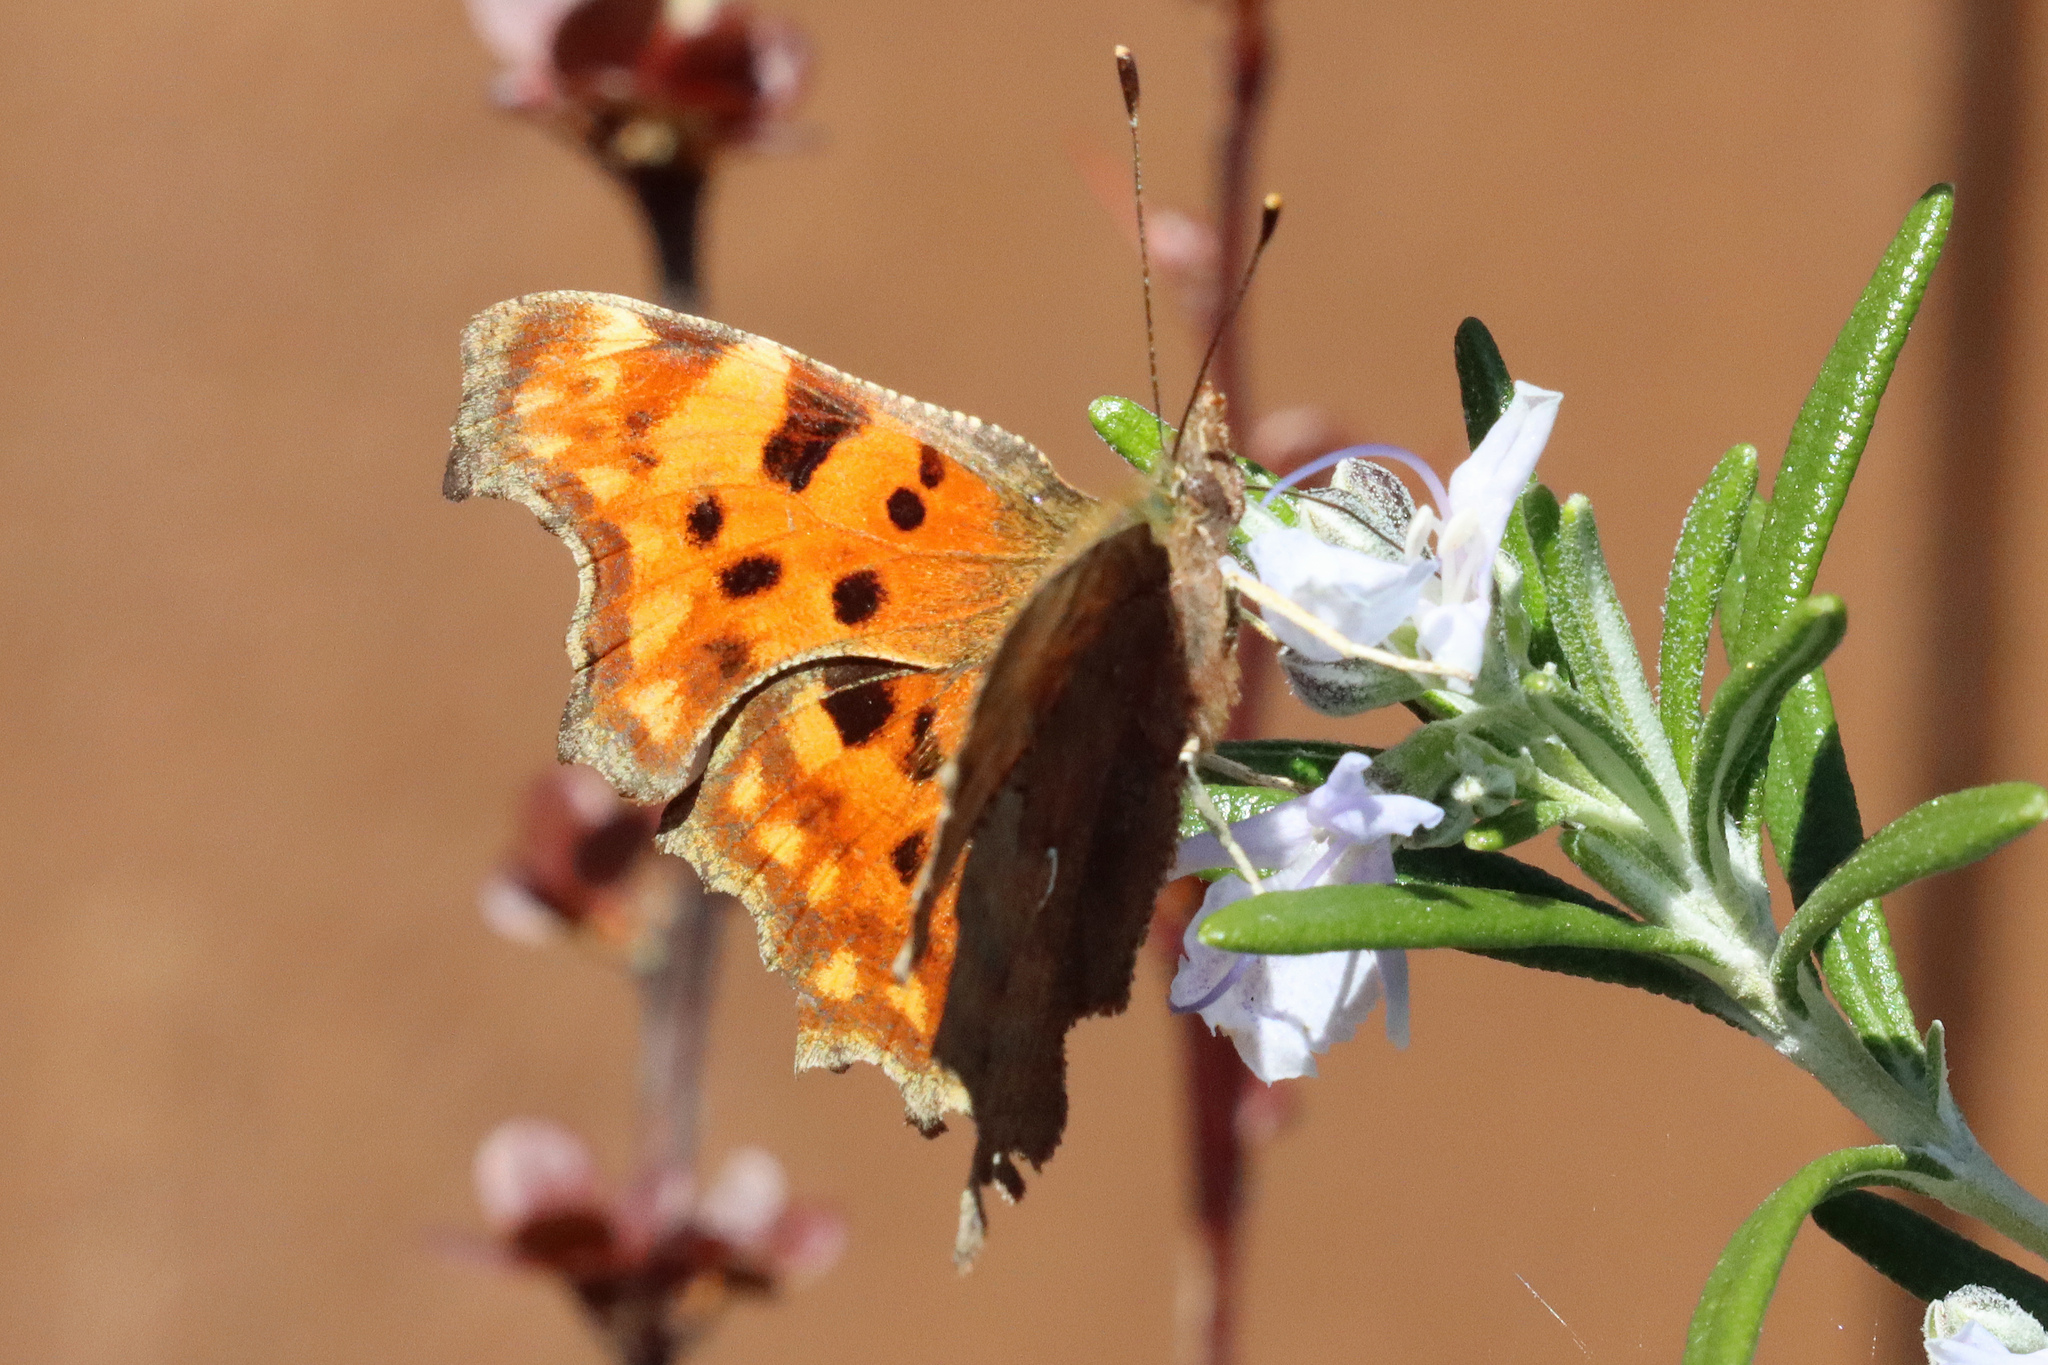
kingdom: Animalia
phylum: Arthropoda
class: Insecta
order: Lepidoptera
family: Nymphalidae
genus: Polygonia
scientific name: Polygonia c-album
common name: Comma
